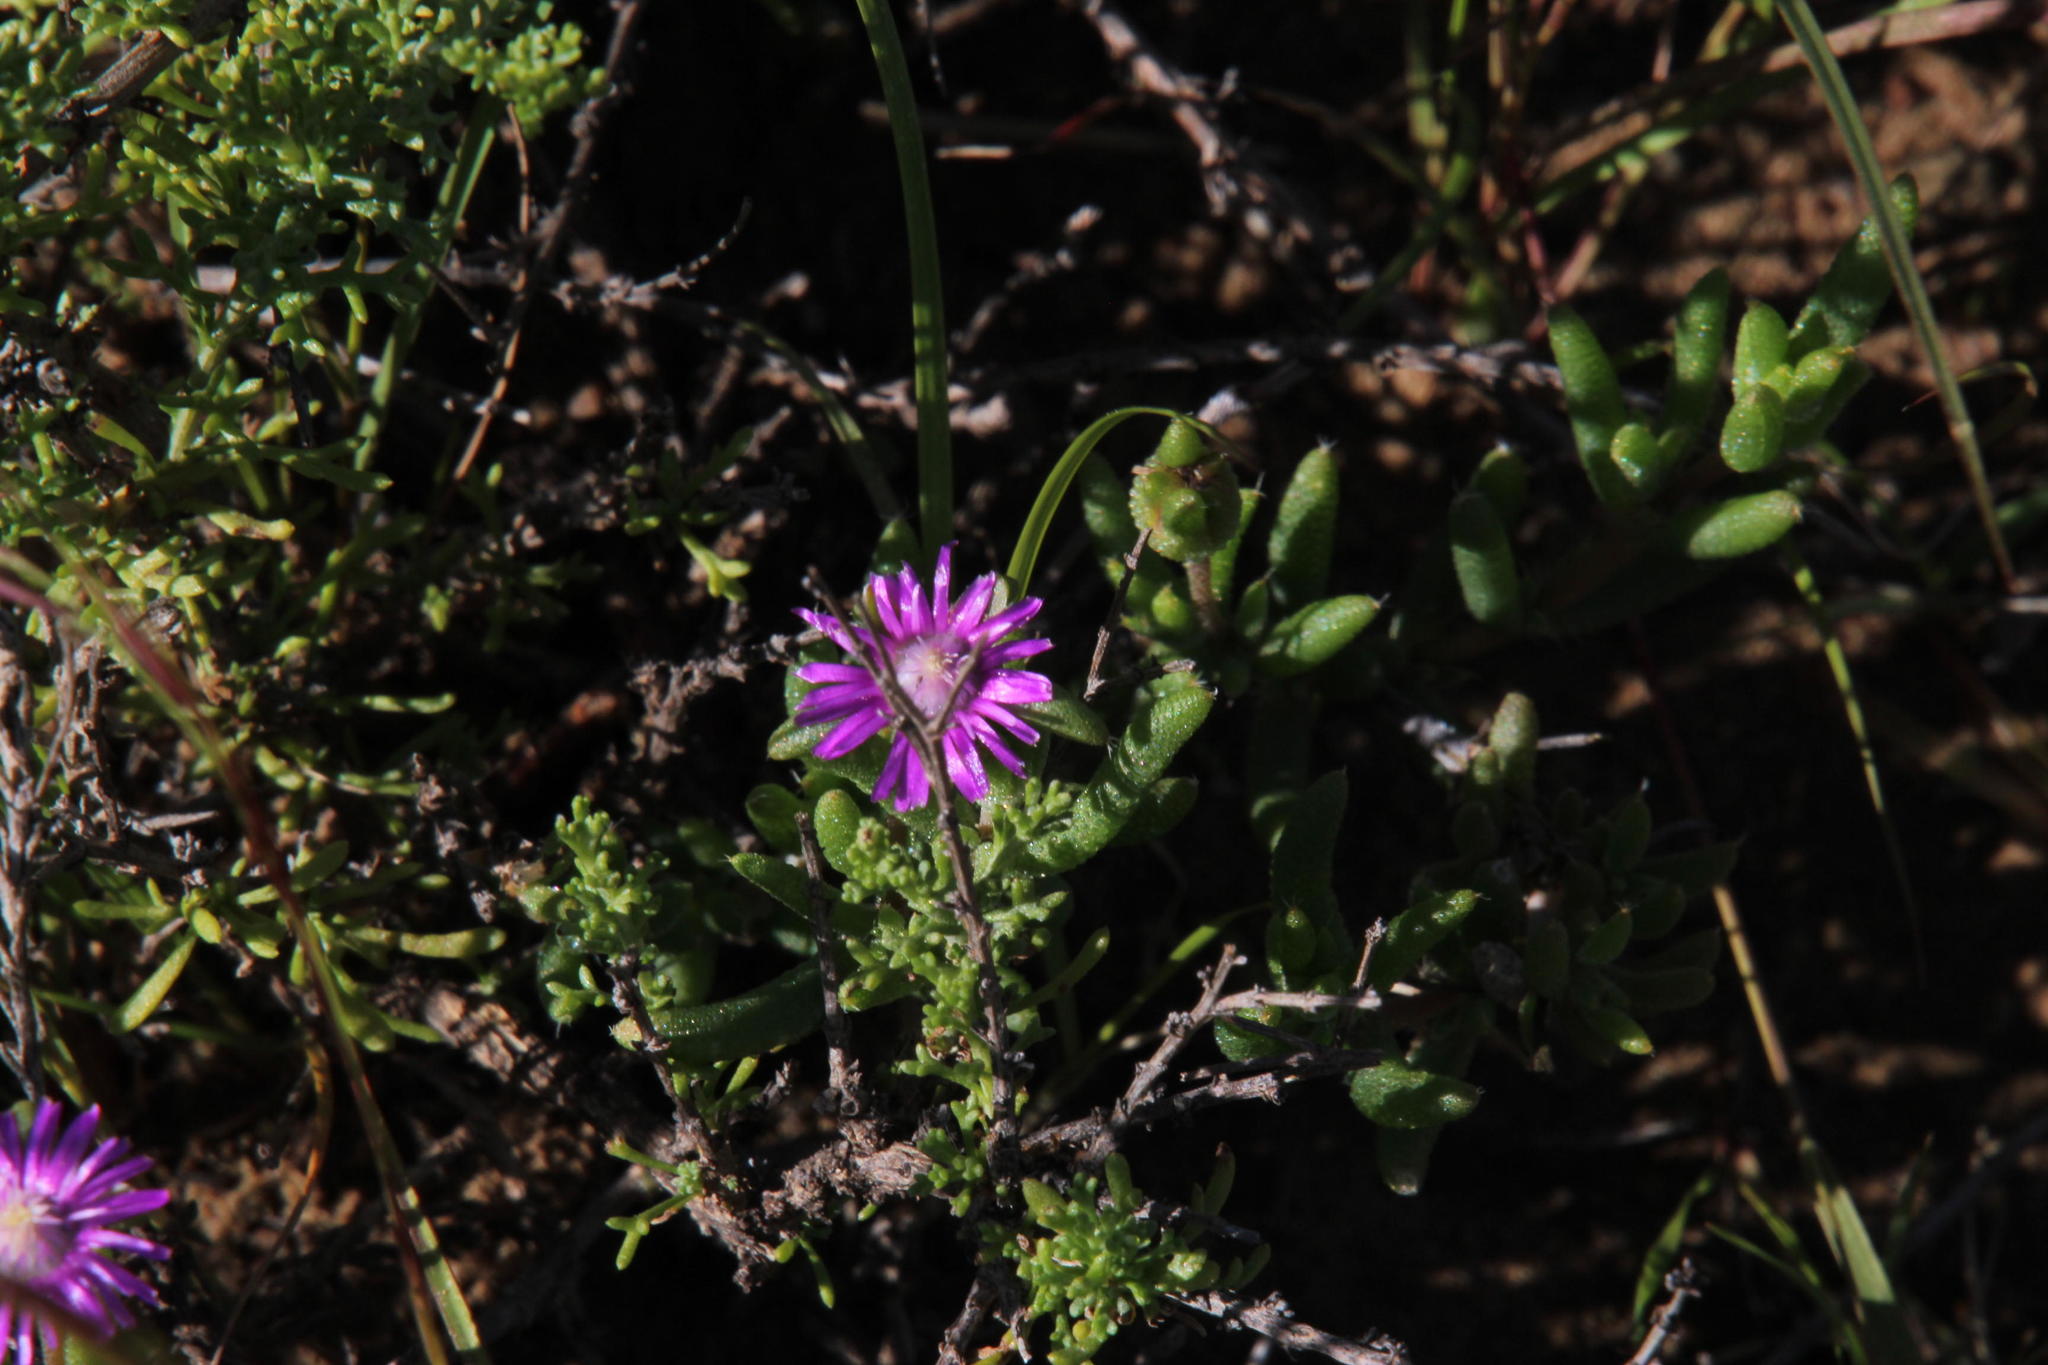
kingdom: Plantae
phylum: Tracheophyta
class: Magnoliopsida
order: Caryophyllales
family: Aizoaceae
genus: Trichodiadema
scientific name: Trichodiadema rogersiae
